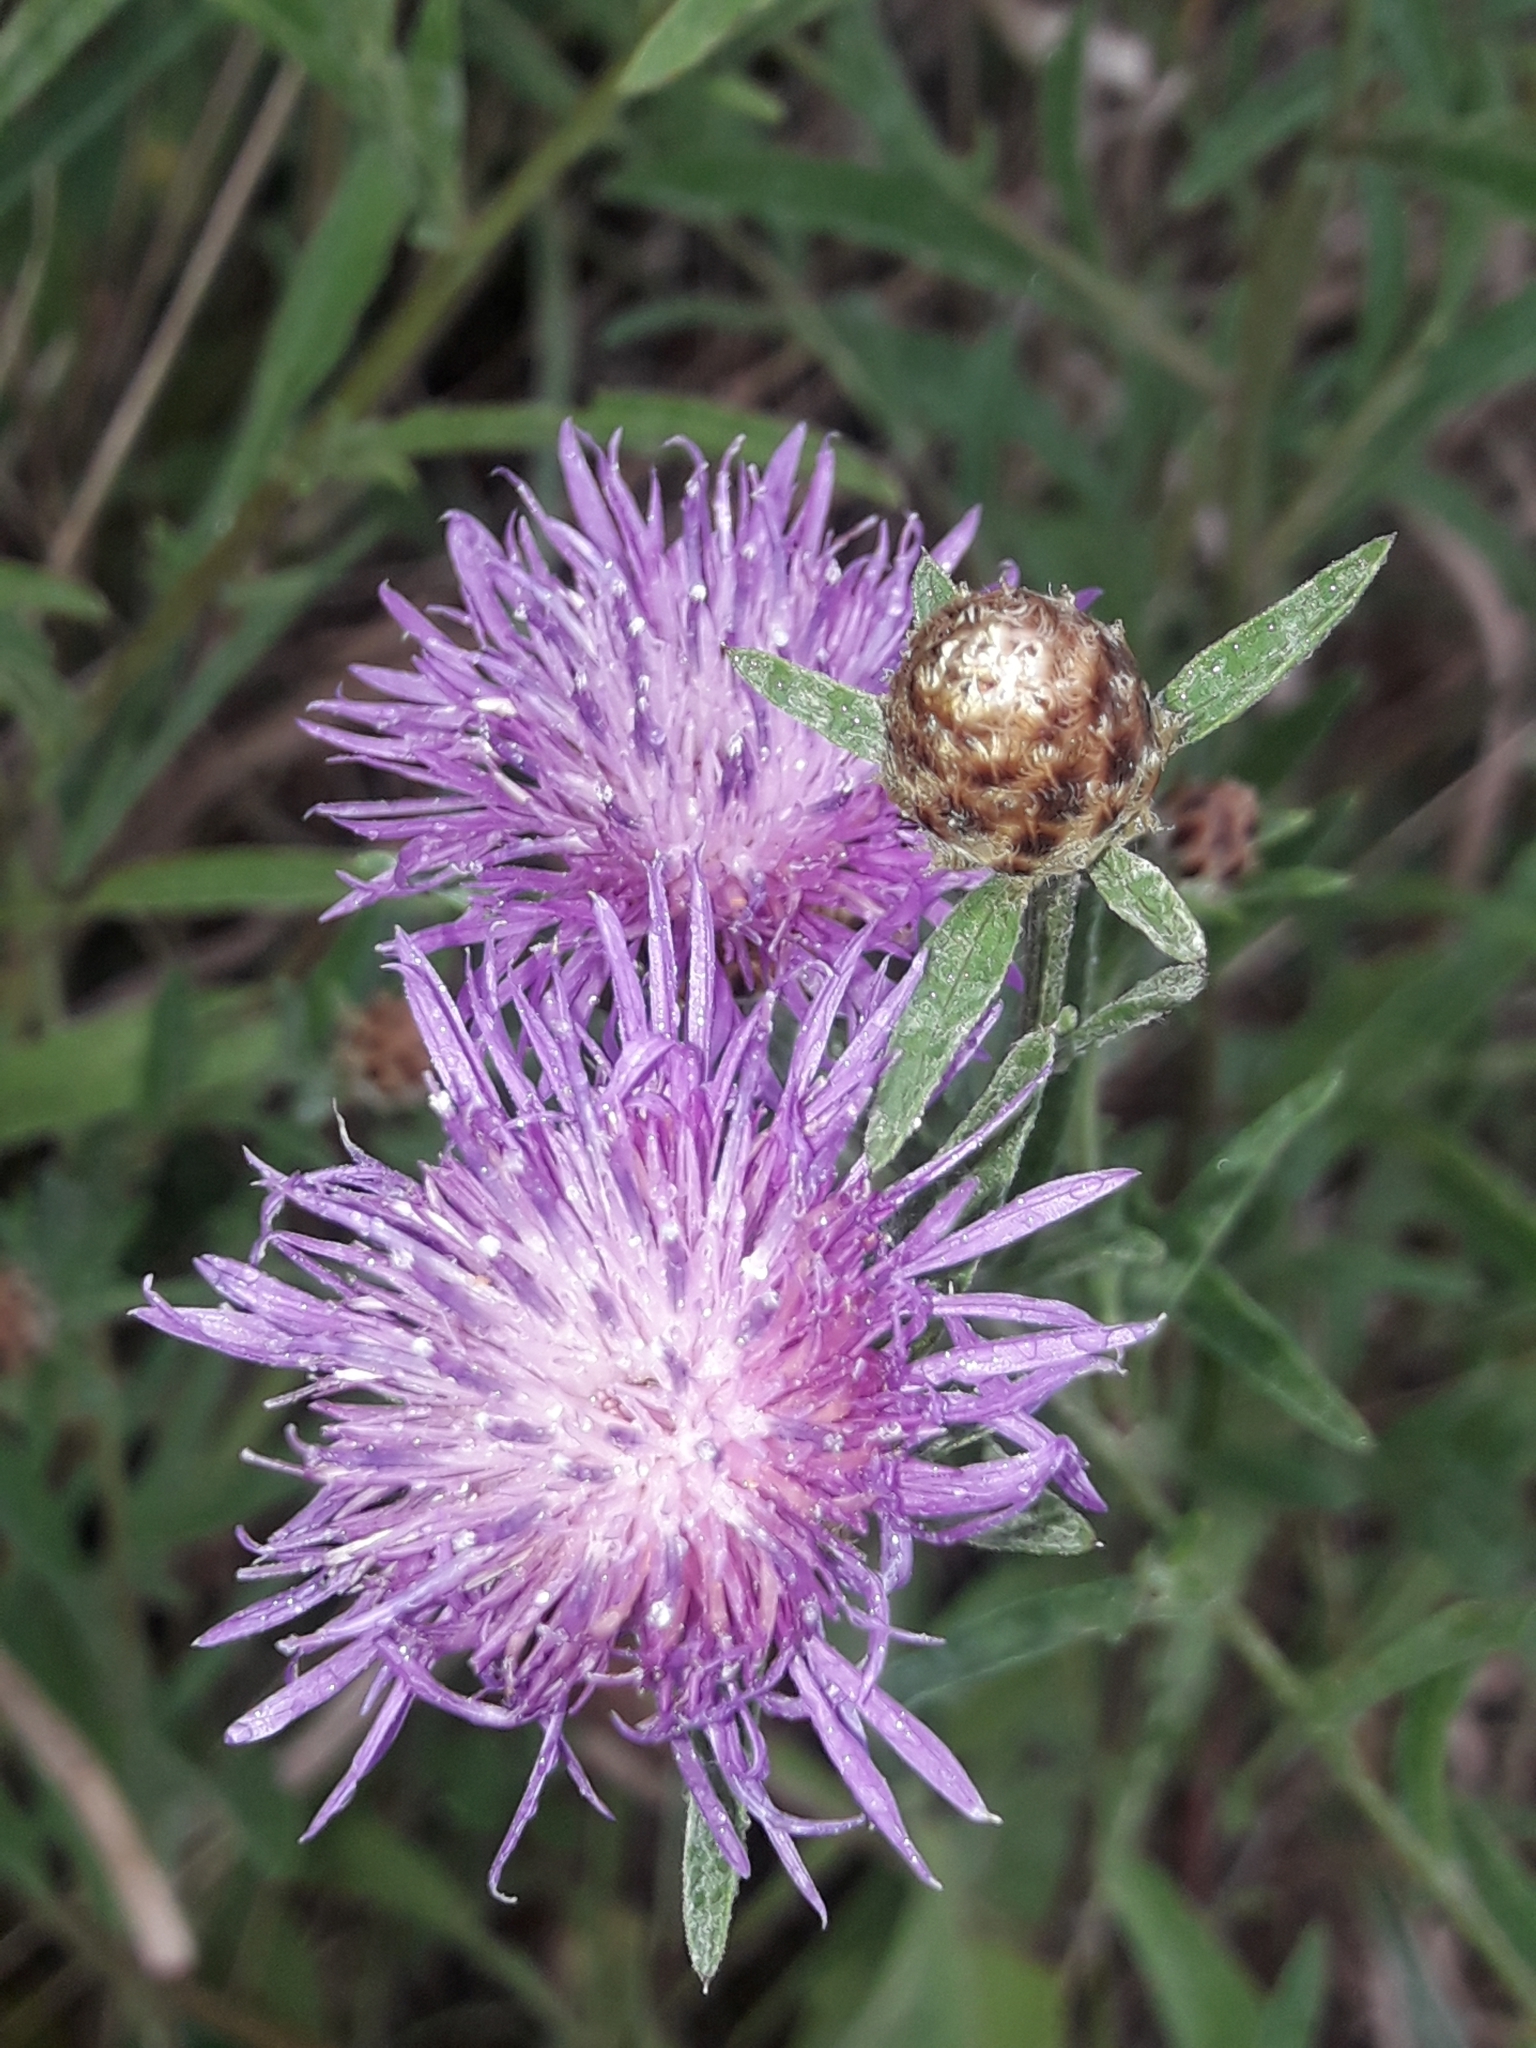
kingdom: Plantae
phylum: Tracheophyta
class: Magnoliopsida
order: Asterales
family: Asteraceae
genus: Centaurea
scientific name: Centaurea nigra
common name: Lesser knapweed
